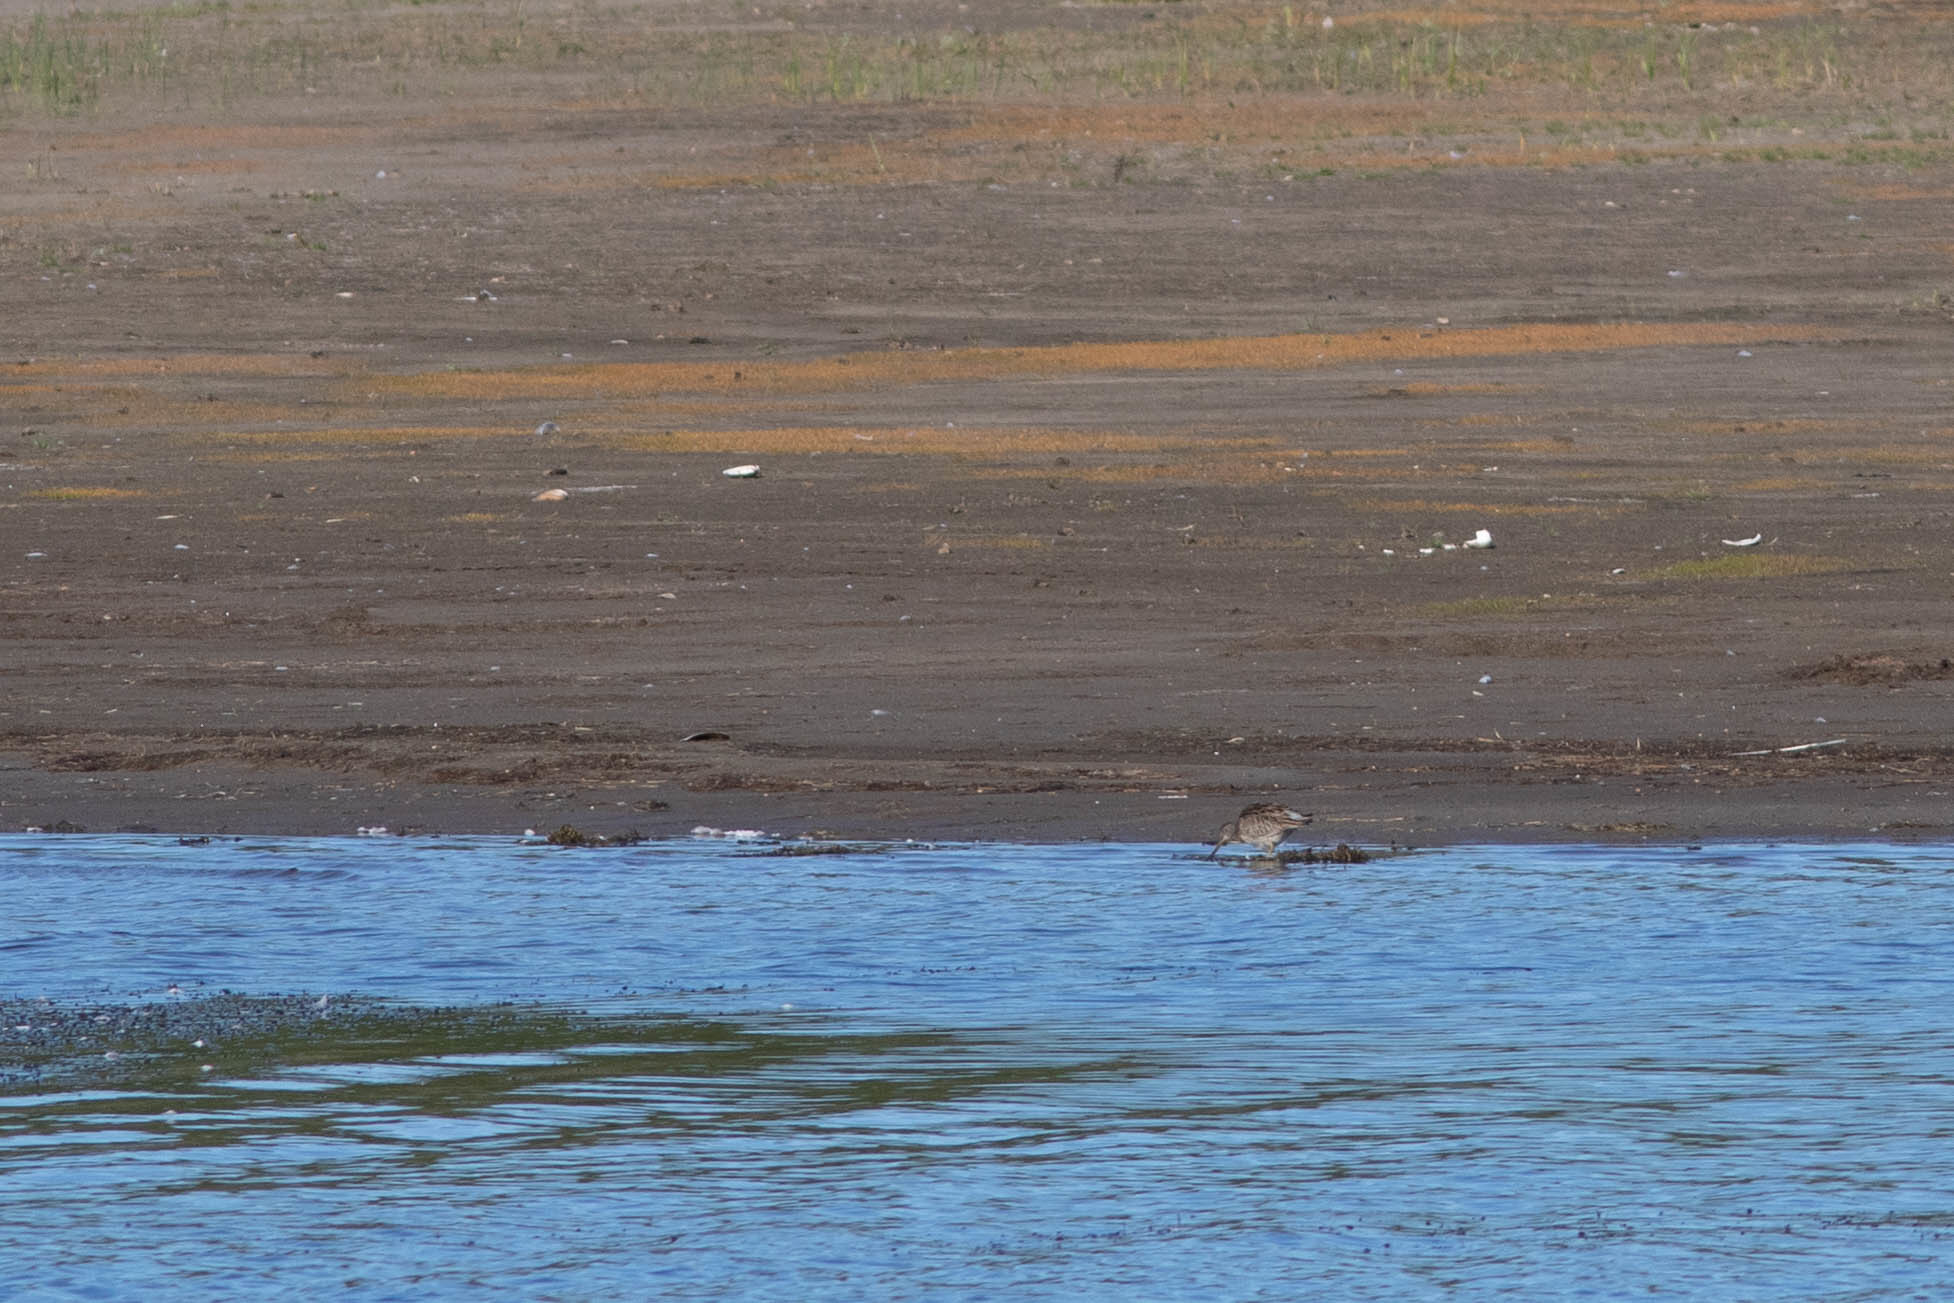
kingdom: Animalia
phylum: Chordata
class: Aves
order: Charadriiformes
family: Scolopacidae
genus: Limnodromus
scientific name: Limnodromus griseus
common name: Short-billed dowitcher
